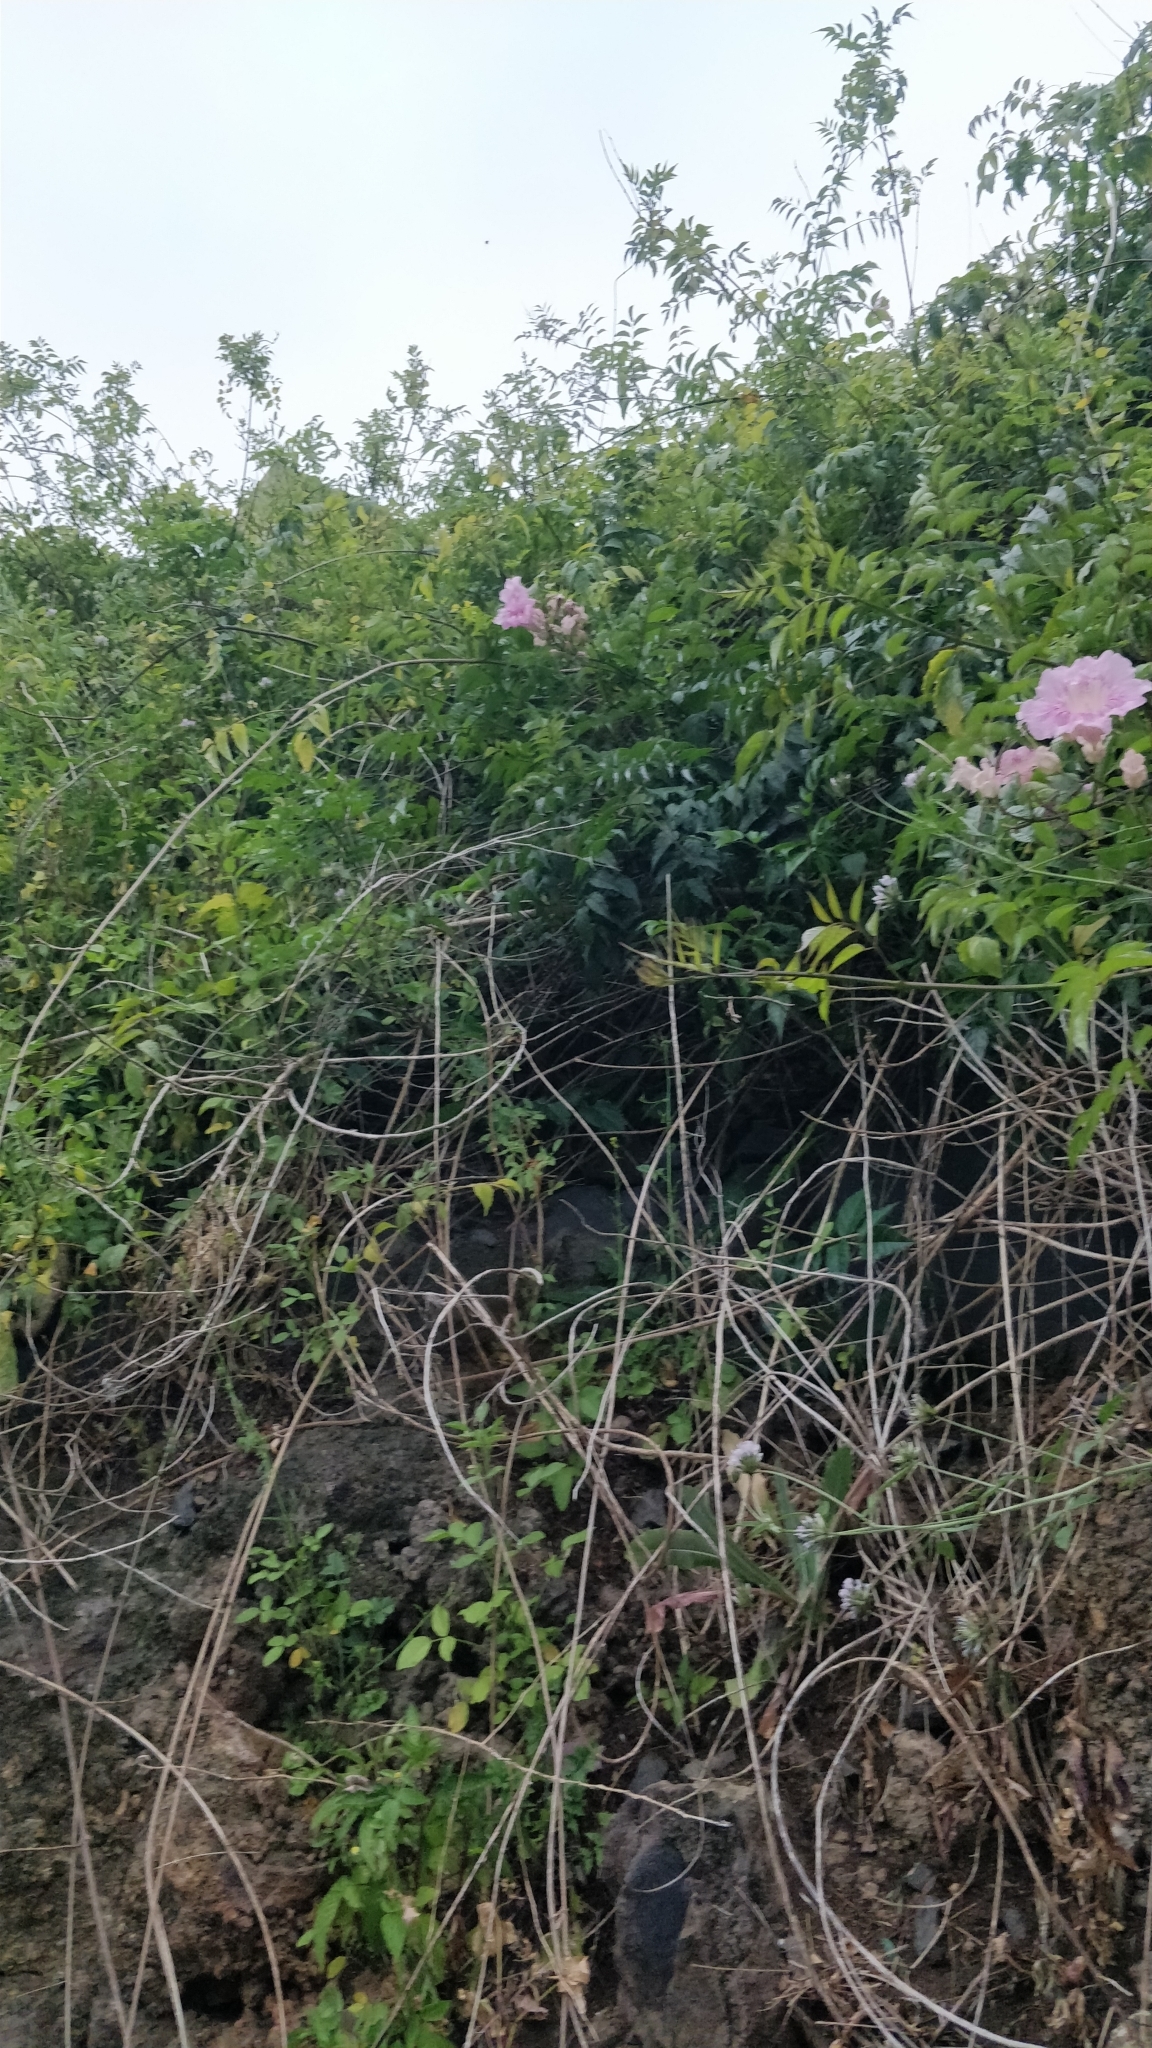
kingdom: Plantae
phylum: Tracheophyta
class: Magnoliopsida
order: Lamiales
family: Bignoniaceae
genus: Podranea
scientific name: Podranea ricasoliana
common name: Zimbabwe creeper
